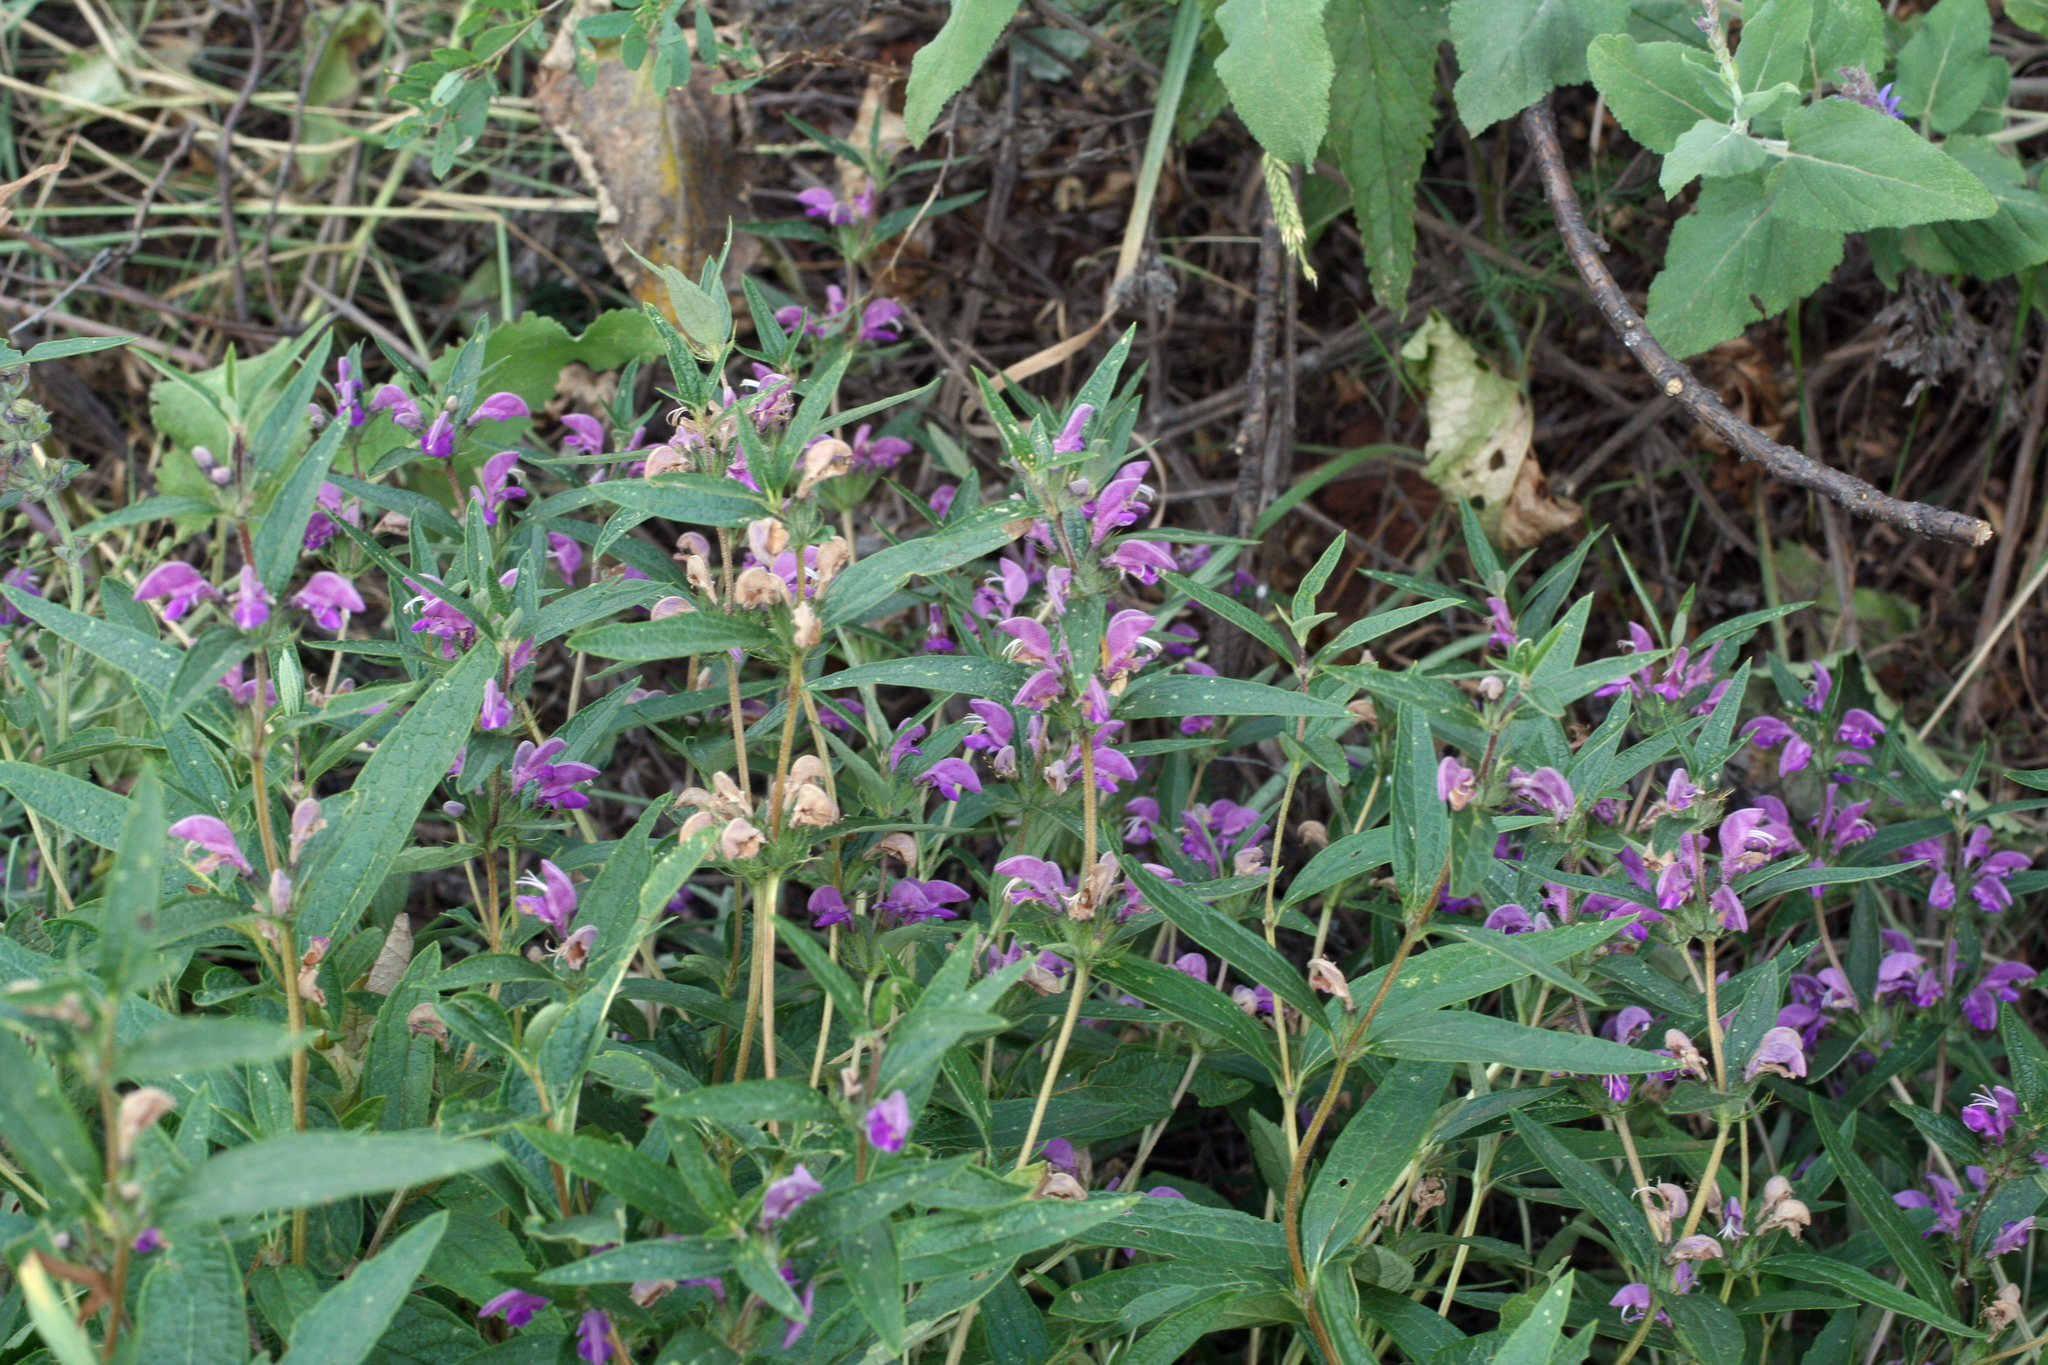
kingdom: Plantae
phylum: Tracheophyta
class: Magnoliopsida
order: Lamiales
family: Lamiaceae
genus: Phlomis
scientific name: Phlomis herba-venti
